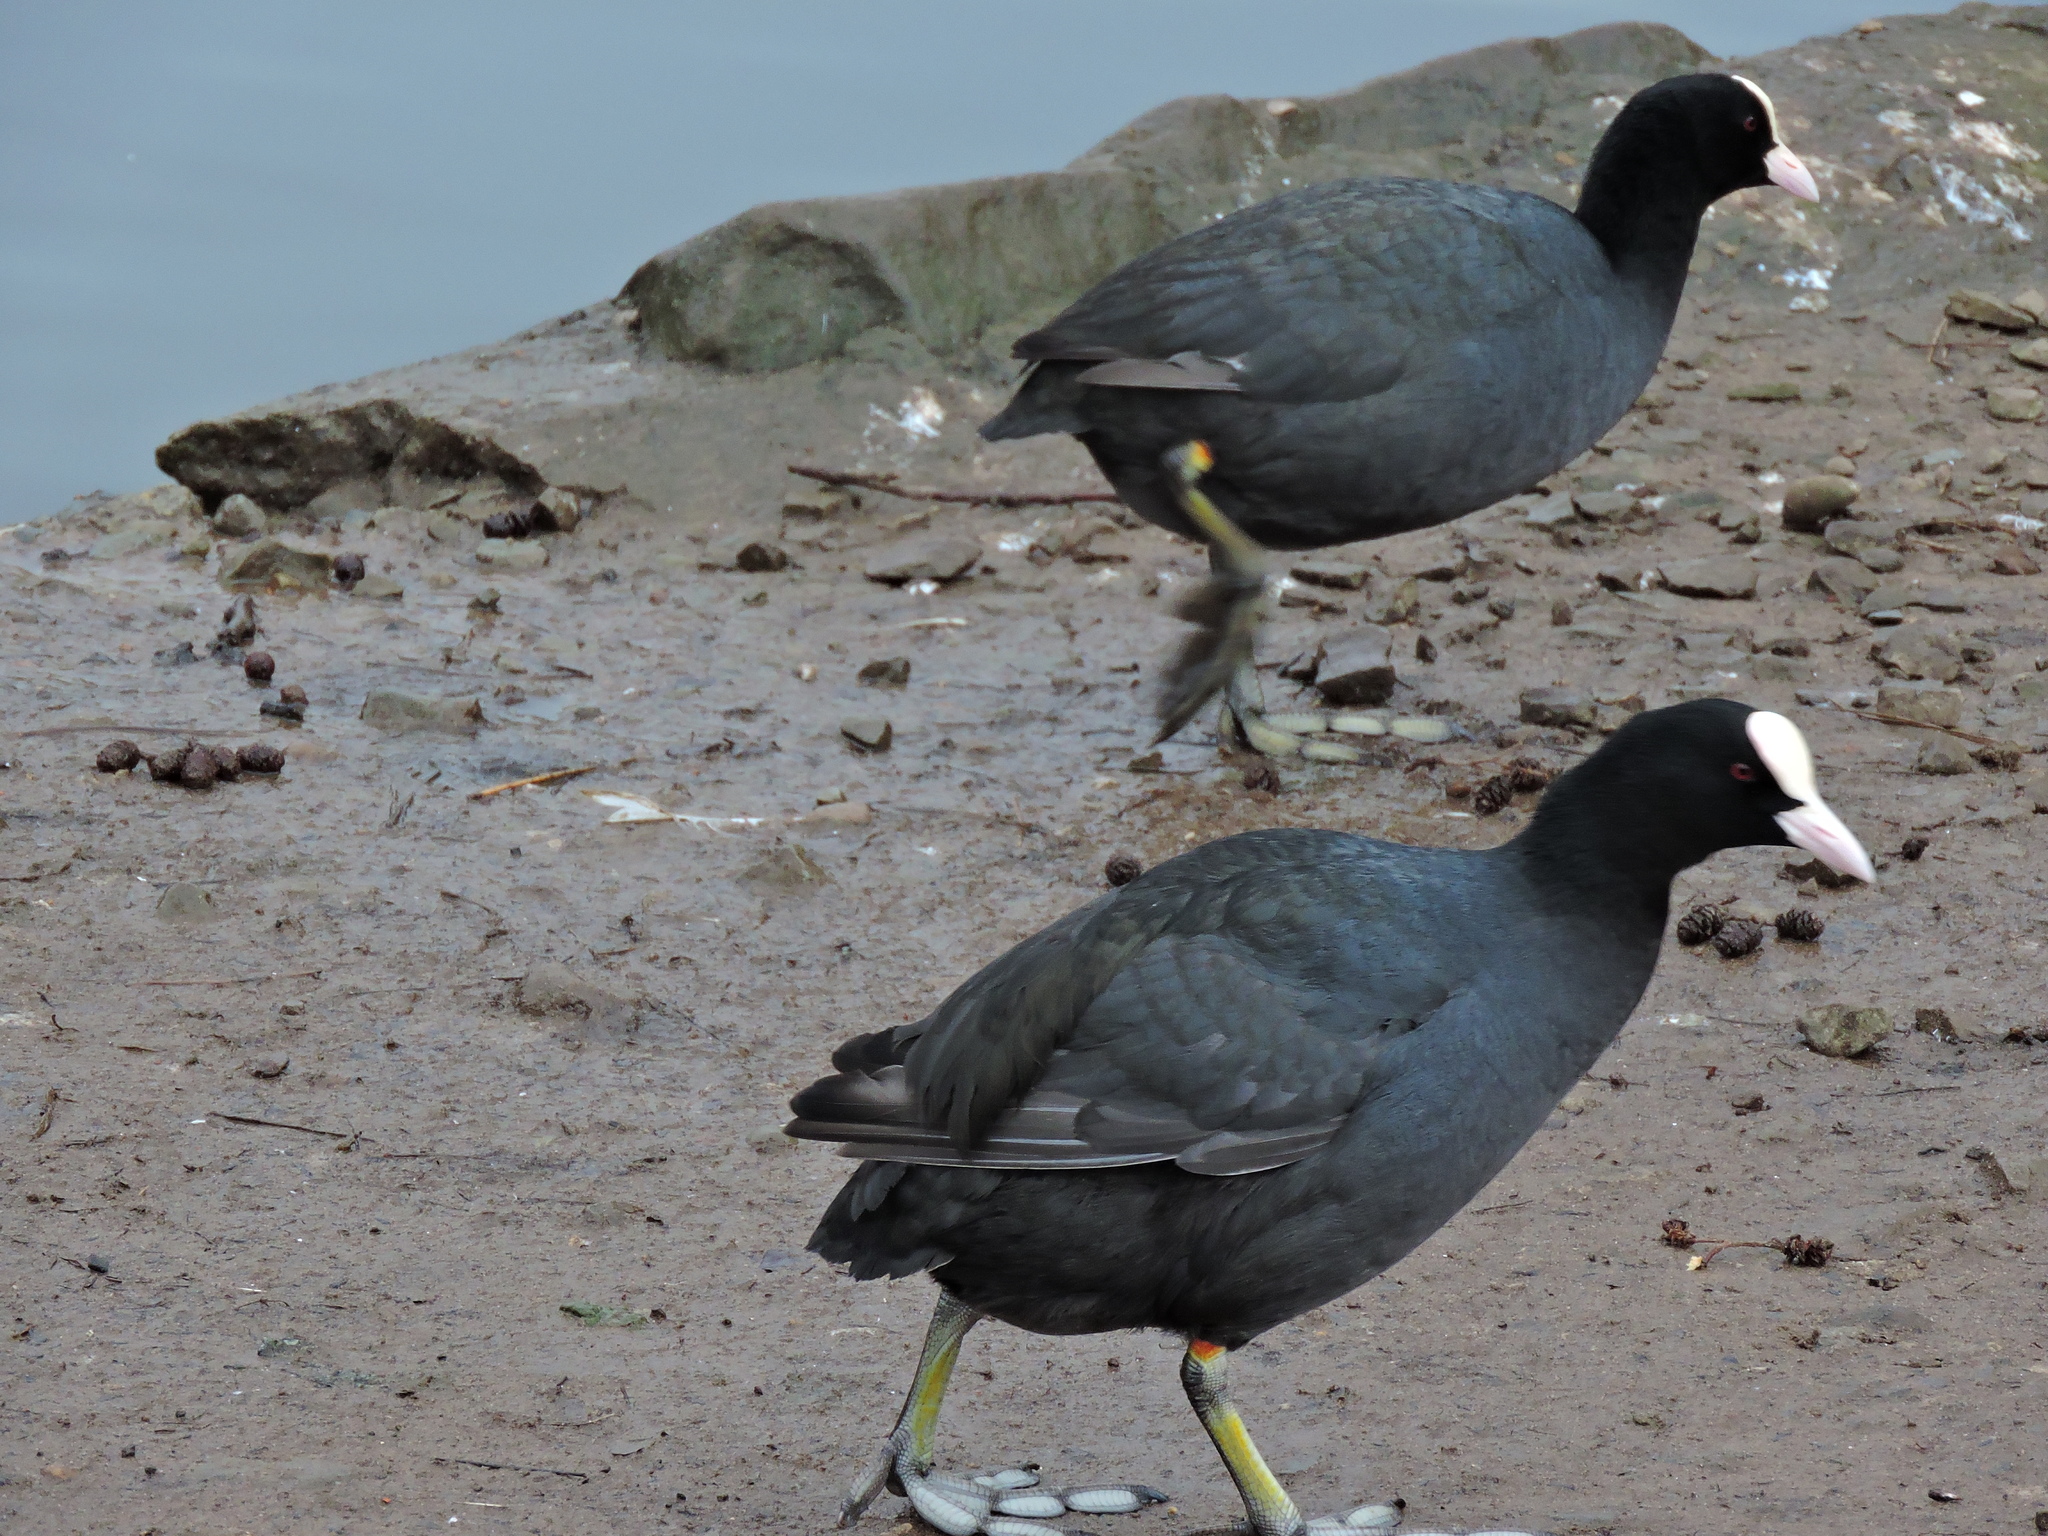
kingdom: Animalia
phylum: Chordata
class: Aves
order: Gruiformes
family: Rallidae
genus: Fulica
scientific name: Fulica atra
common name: Eurasian coot
